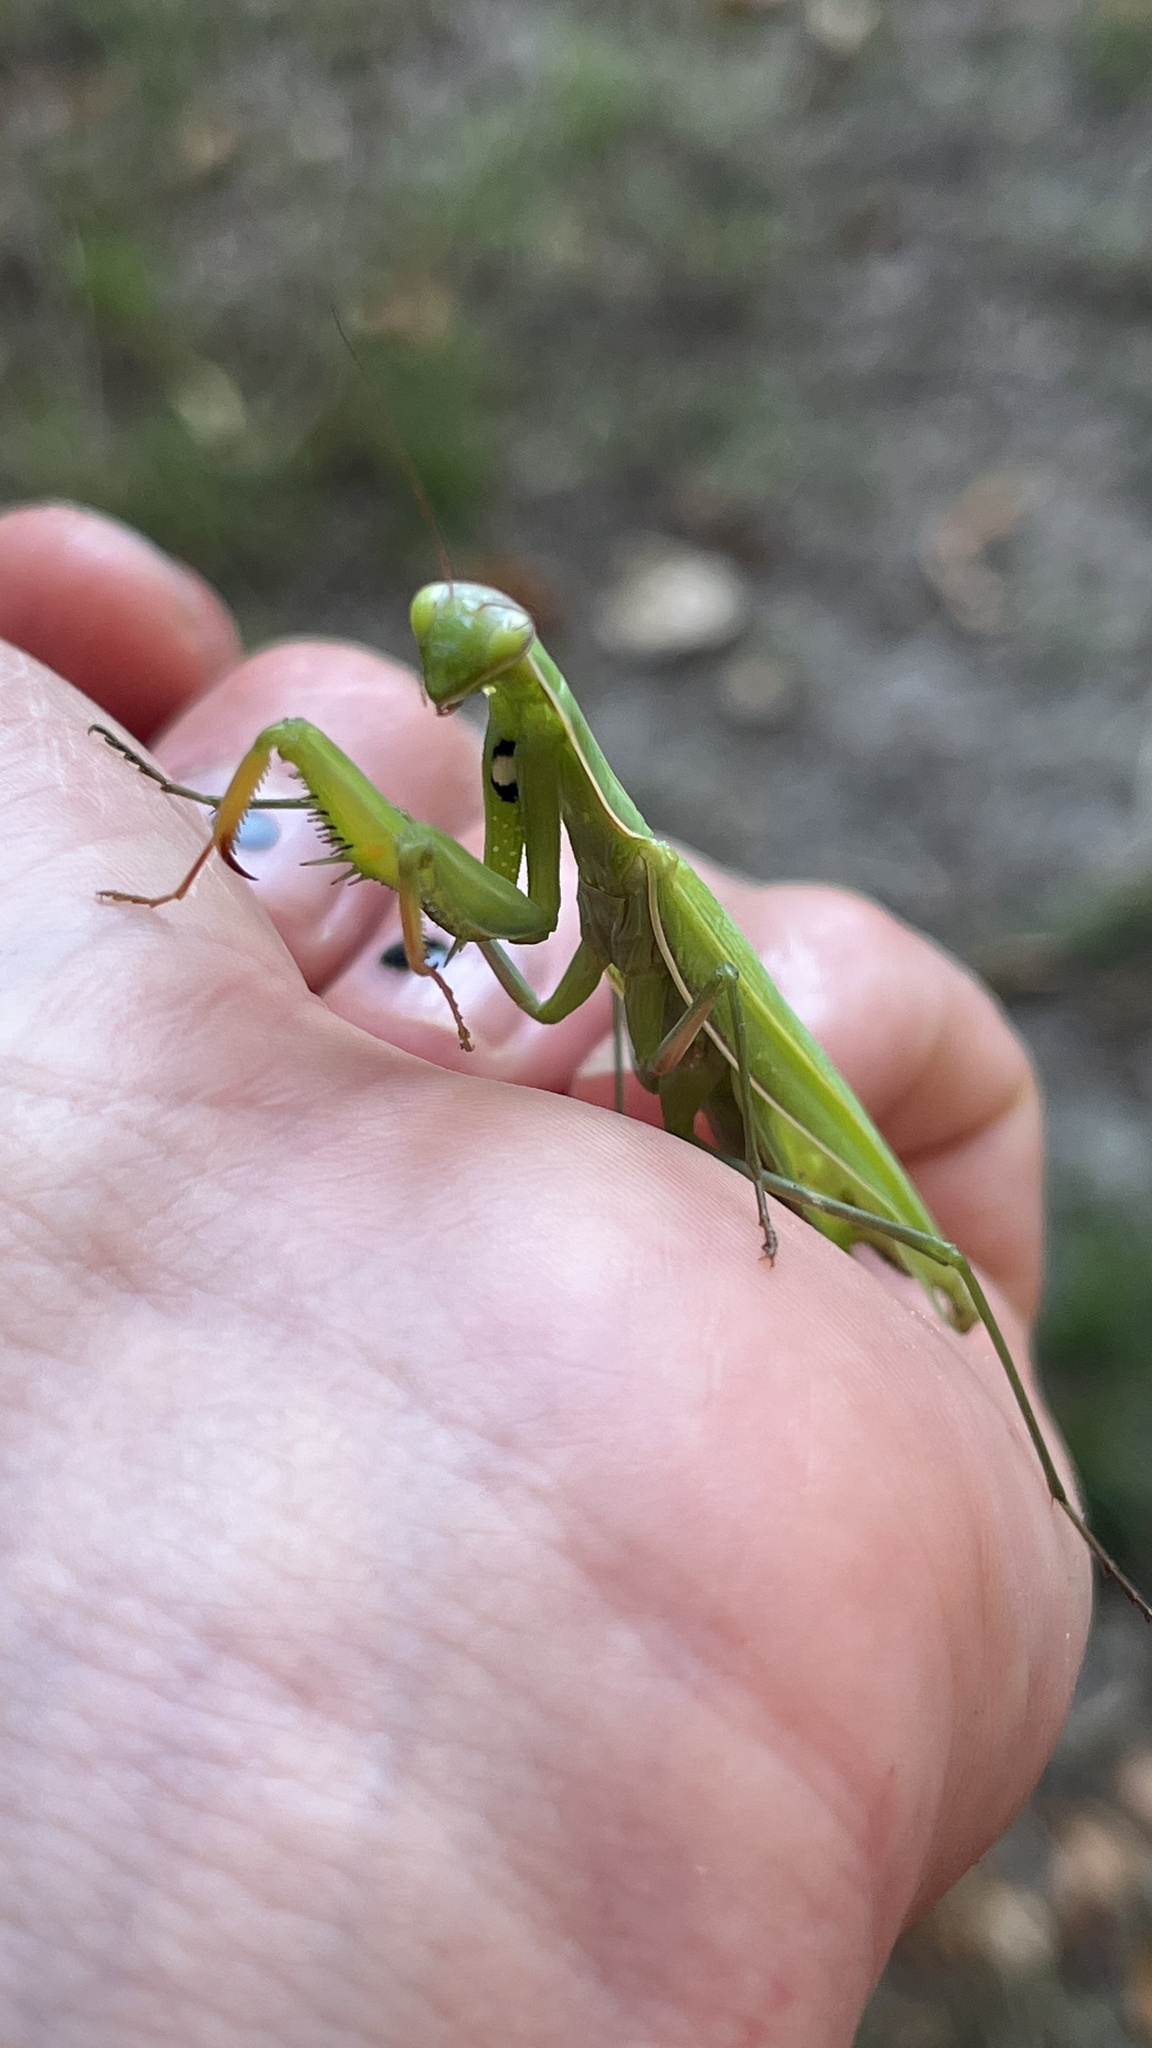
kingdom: Animalia
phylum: Arthropoda
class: Insecta
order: Mantodea
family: Mantidae
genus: Mantis
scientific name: Mantis religiosa
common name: Praying mantis
